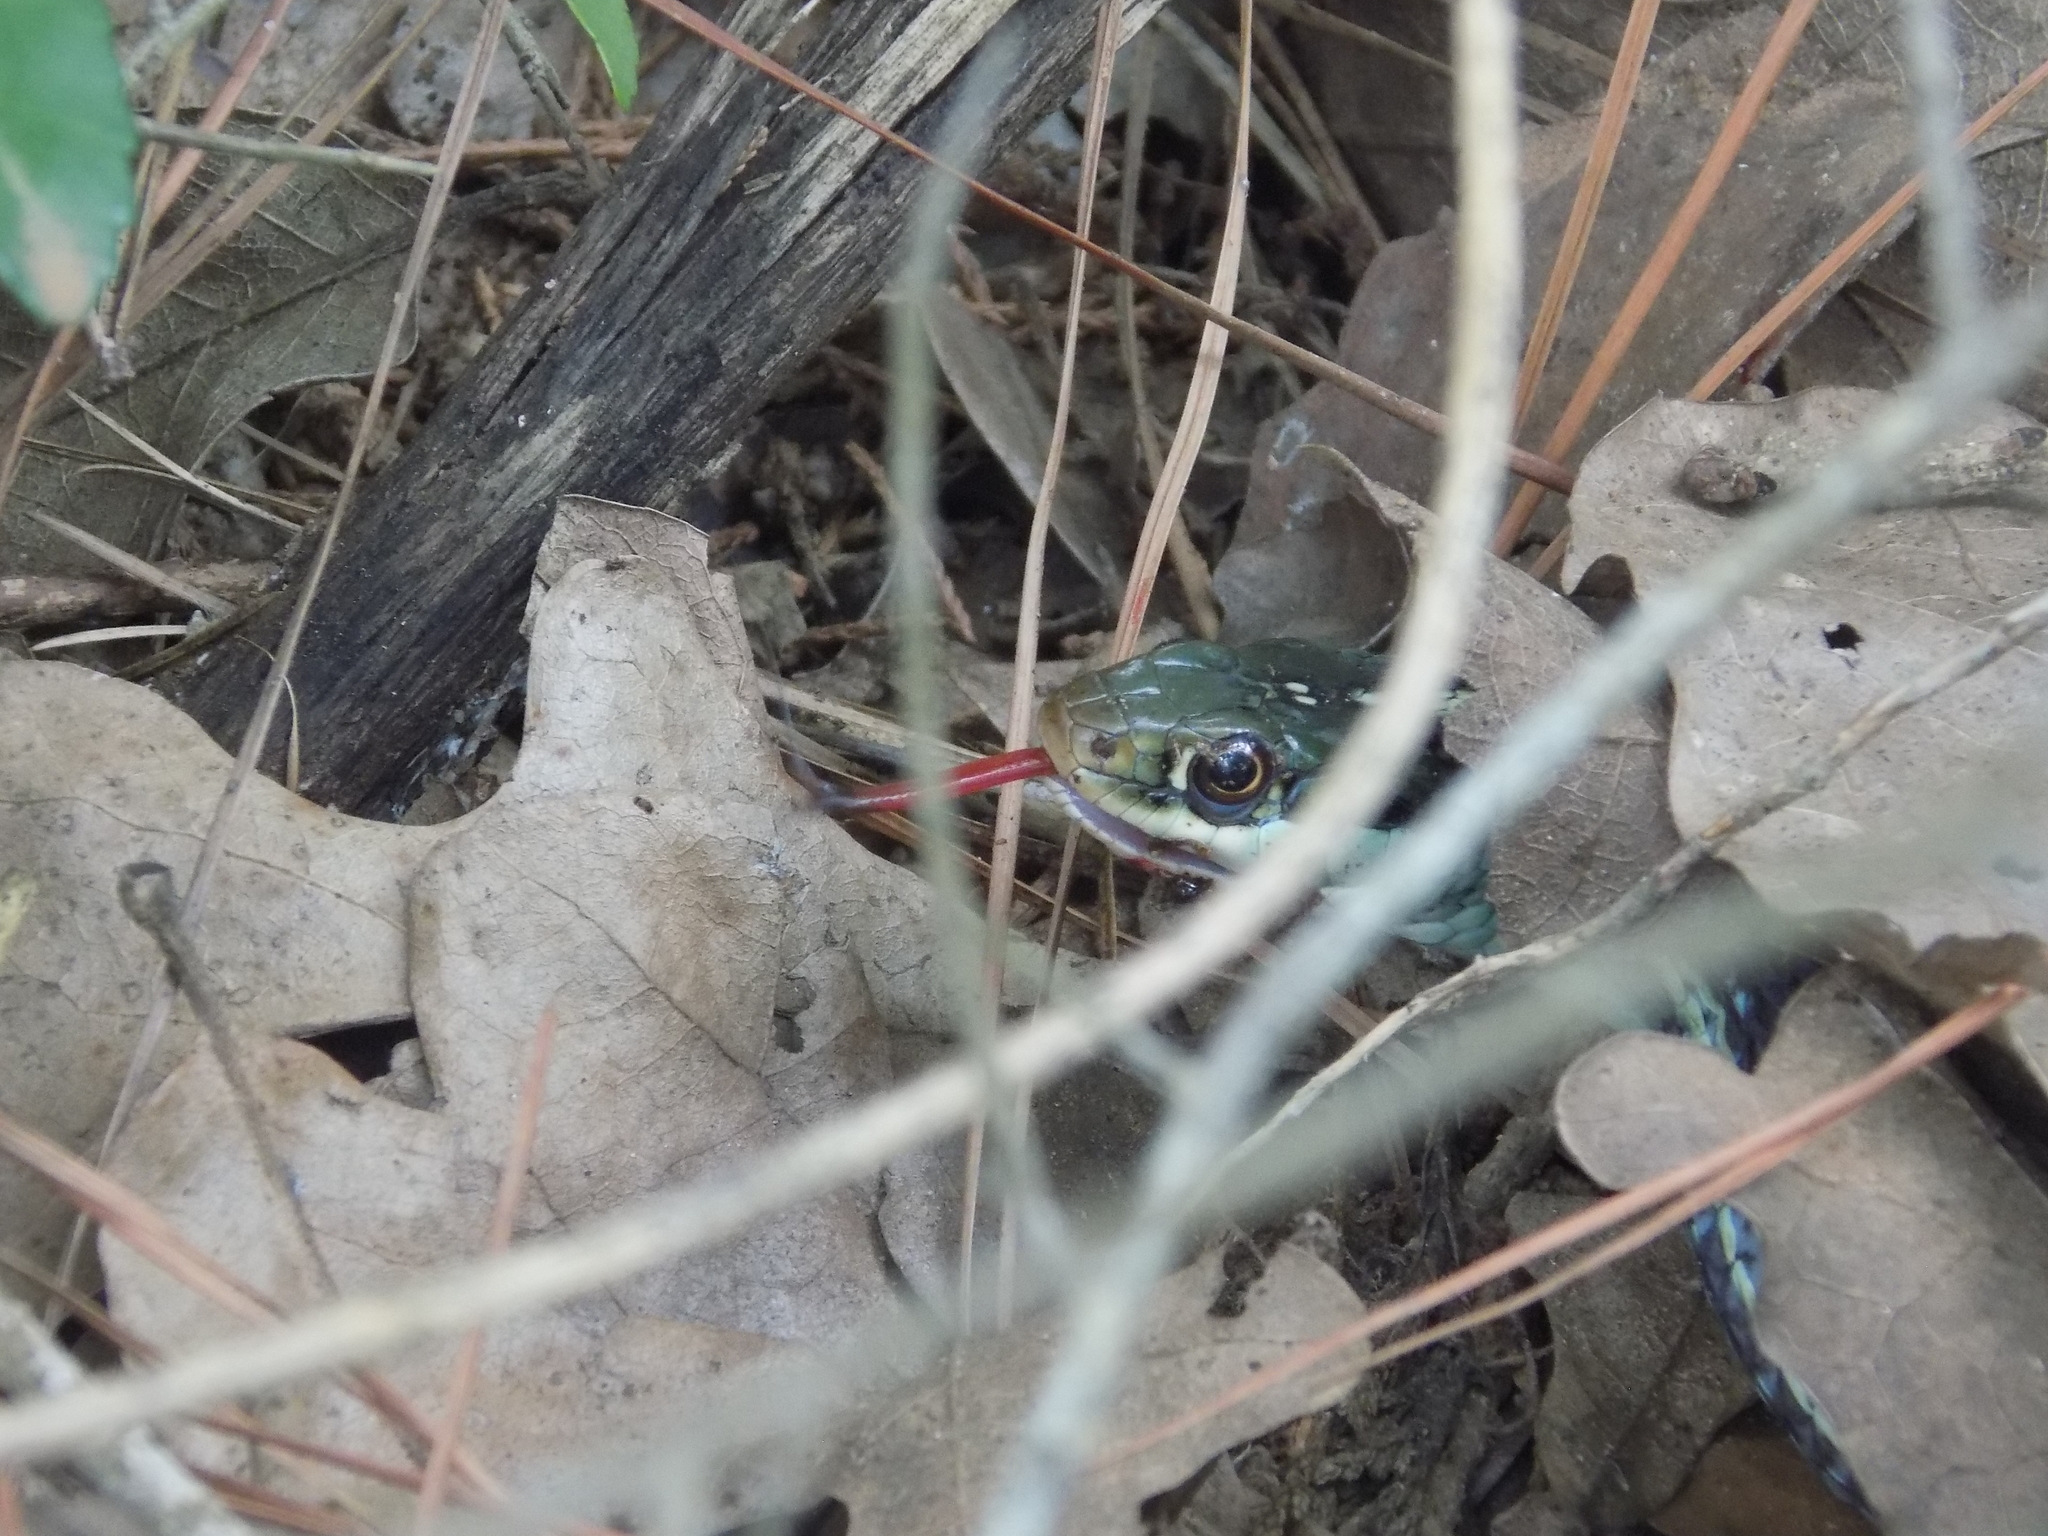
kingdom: Animalia
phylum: Chordata
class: Squamata
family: Colubridae
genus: Thamnophis
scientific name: Thamnophis proximus
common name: Western ribbon snake
